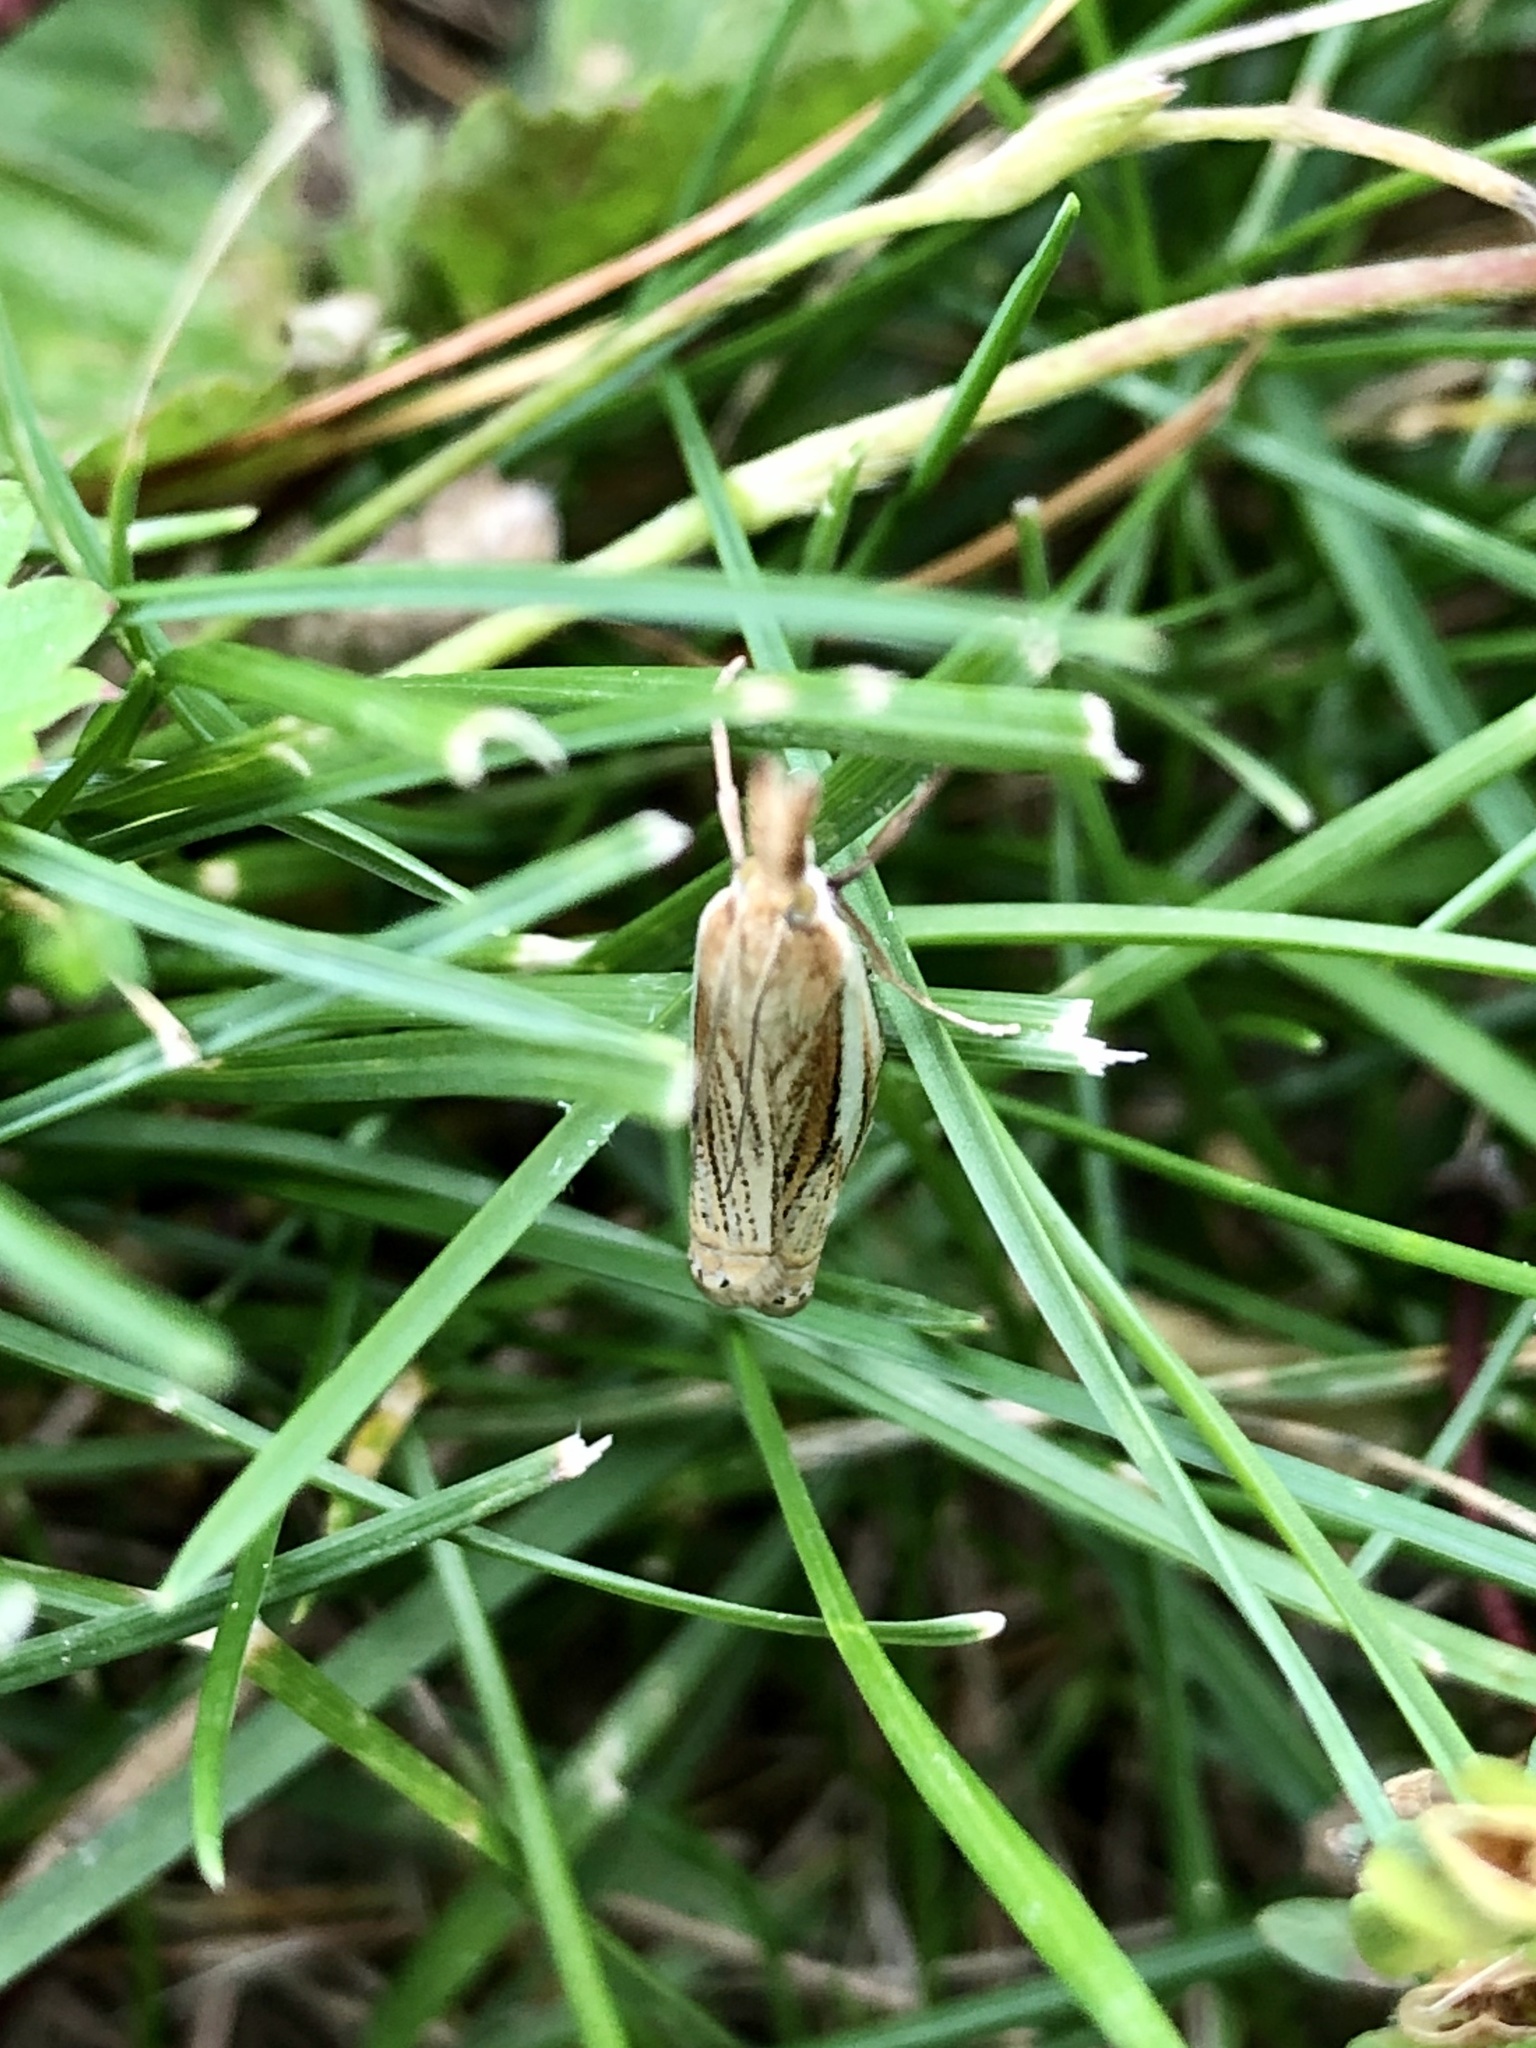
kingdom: Animalia
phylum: Arthropoda
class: Insecta
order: Lepidoptera
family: Crambidae
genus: Crambus
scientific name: Crambus saltuellus
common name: Pasture grass-veneer
